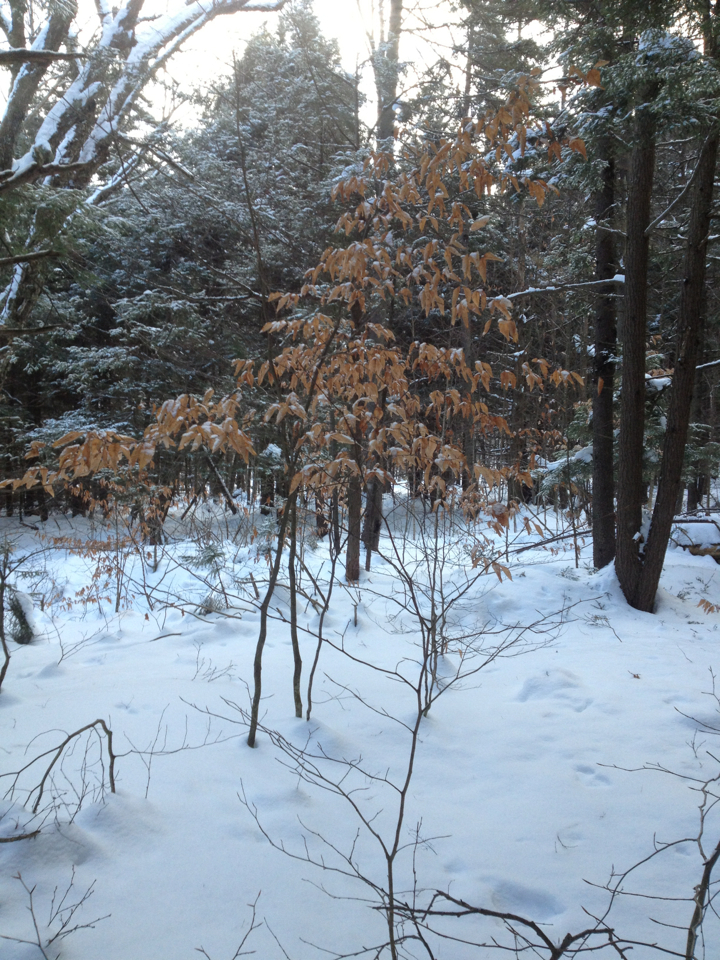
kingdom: Plantae
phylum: Tracheophyta
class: Magnoliopsida
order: Fagales
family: Fagaceae
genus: Fagus
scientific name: Fagus grandifolia
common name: American beech
